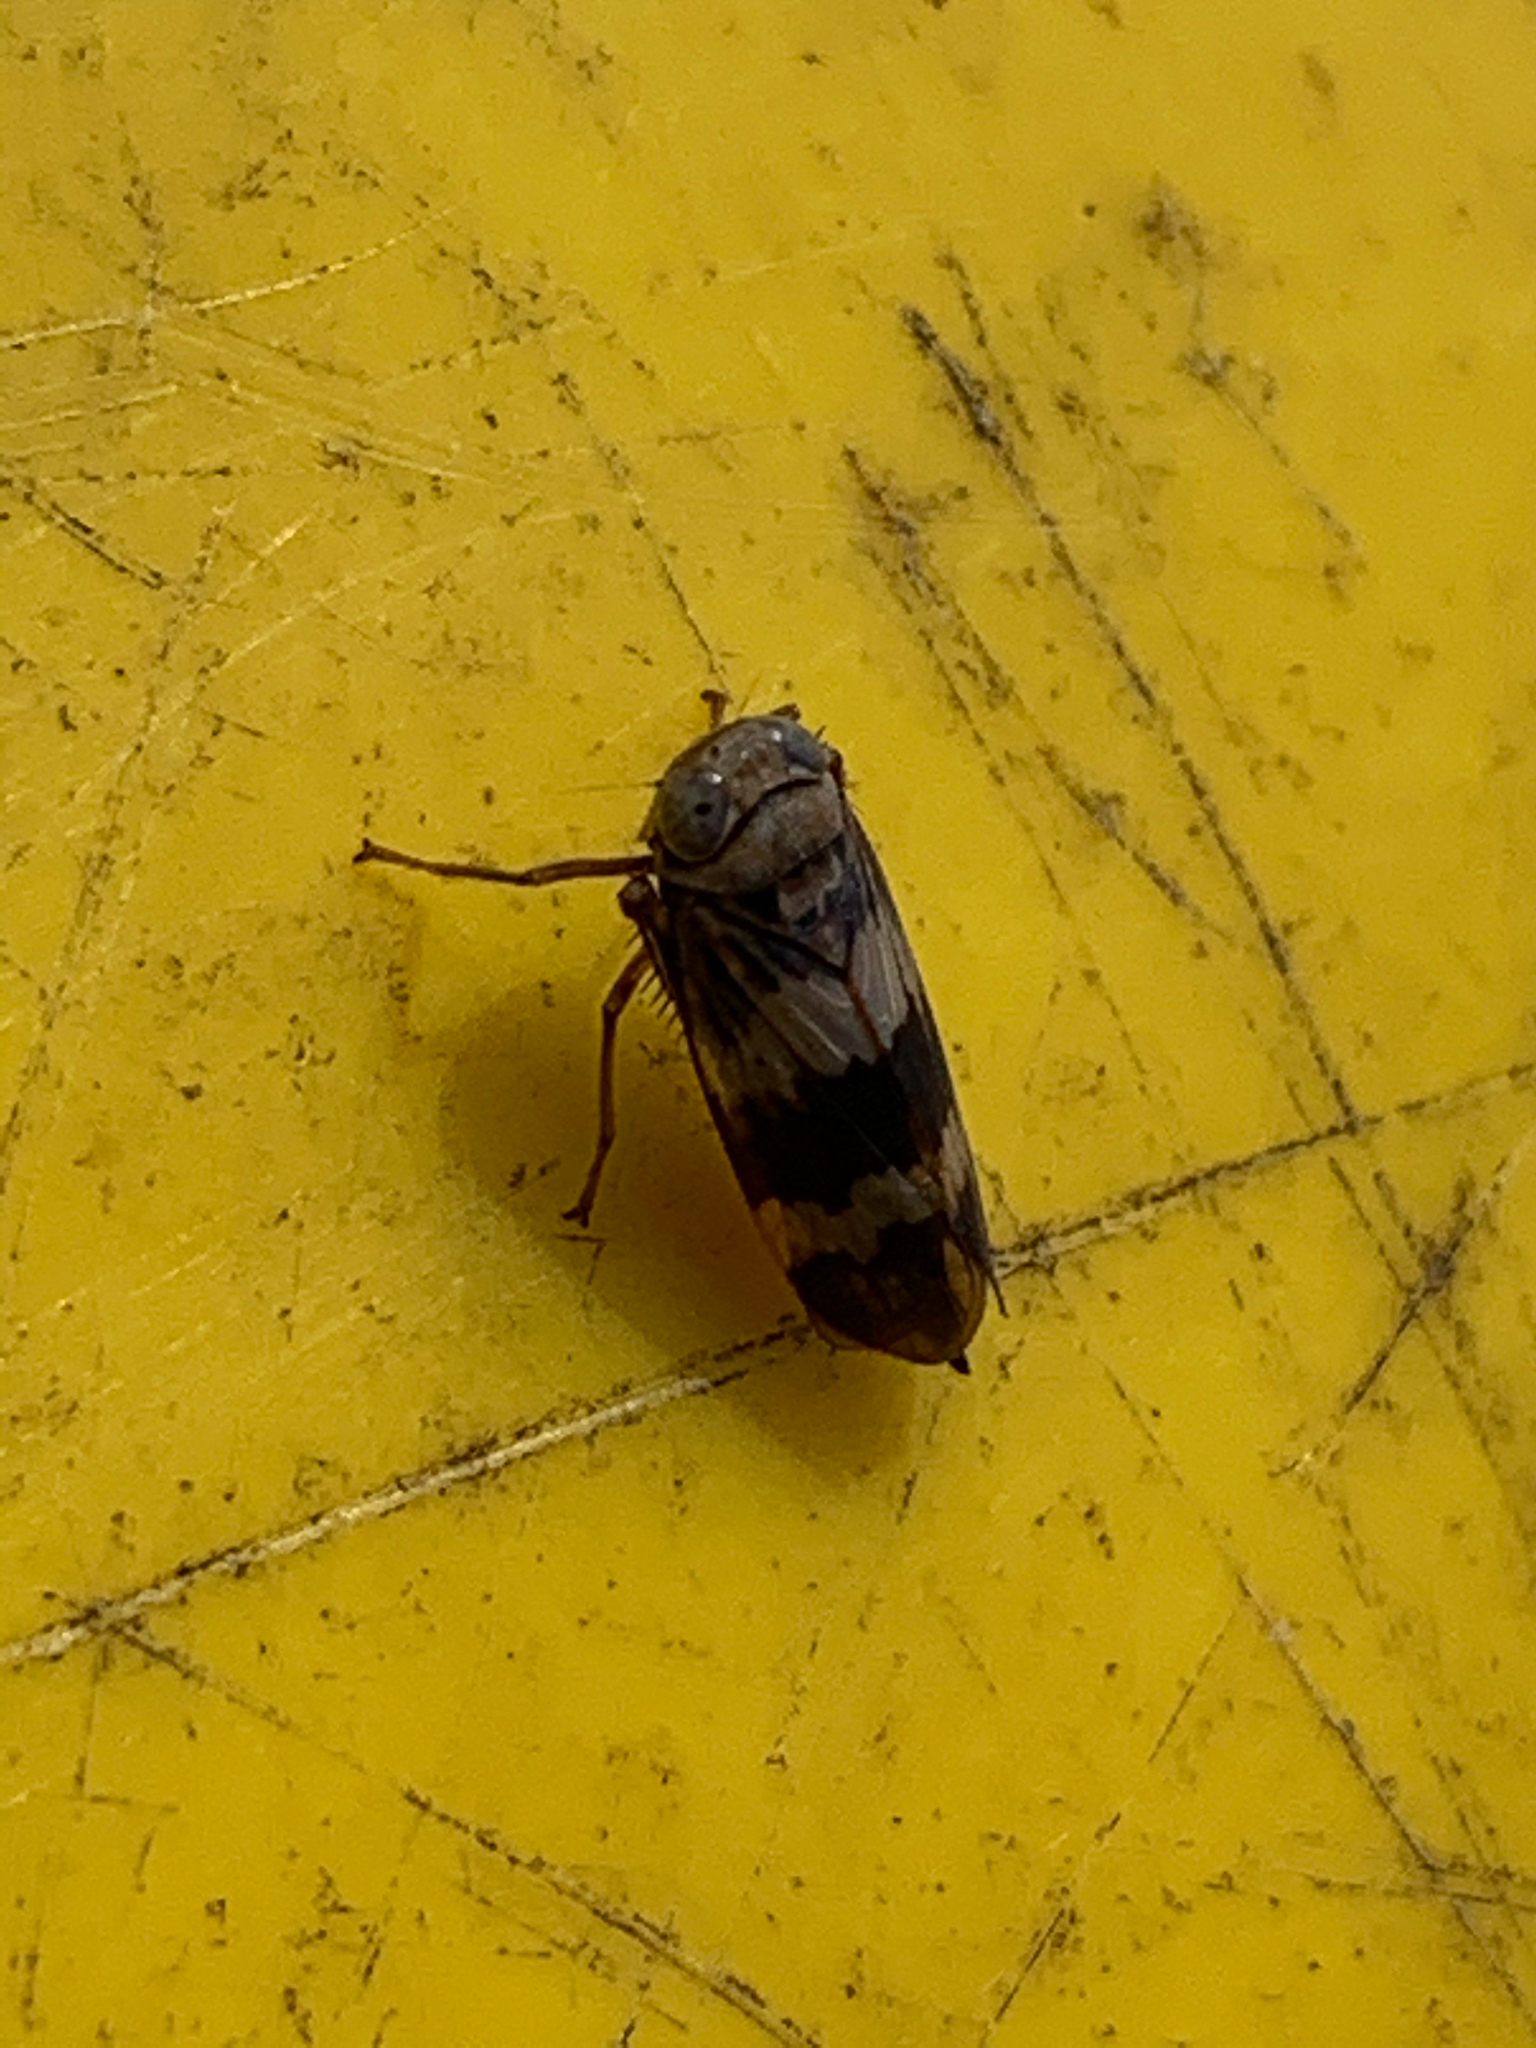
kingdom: Animalia
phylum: Arthropoda
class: Insecta
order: Hemiptera
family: Cicadellidae
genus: Jikradia
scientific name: Jikradia olitoria
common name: Coppery leafhopper
